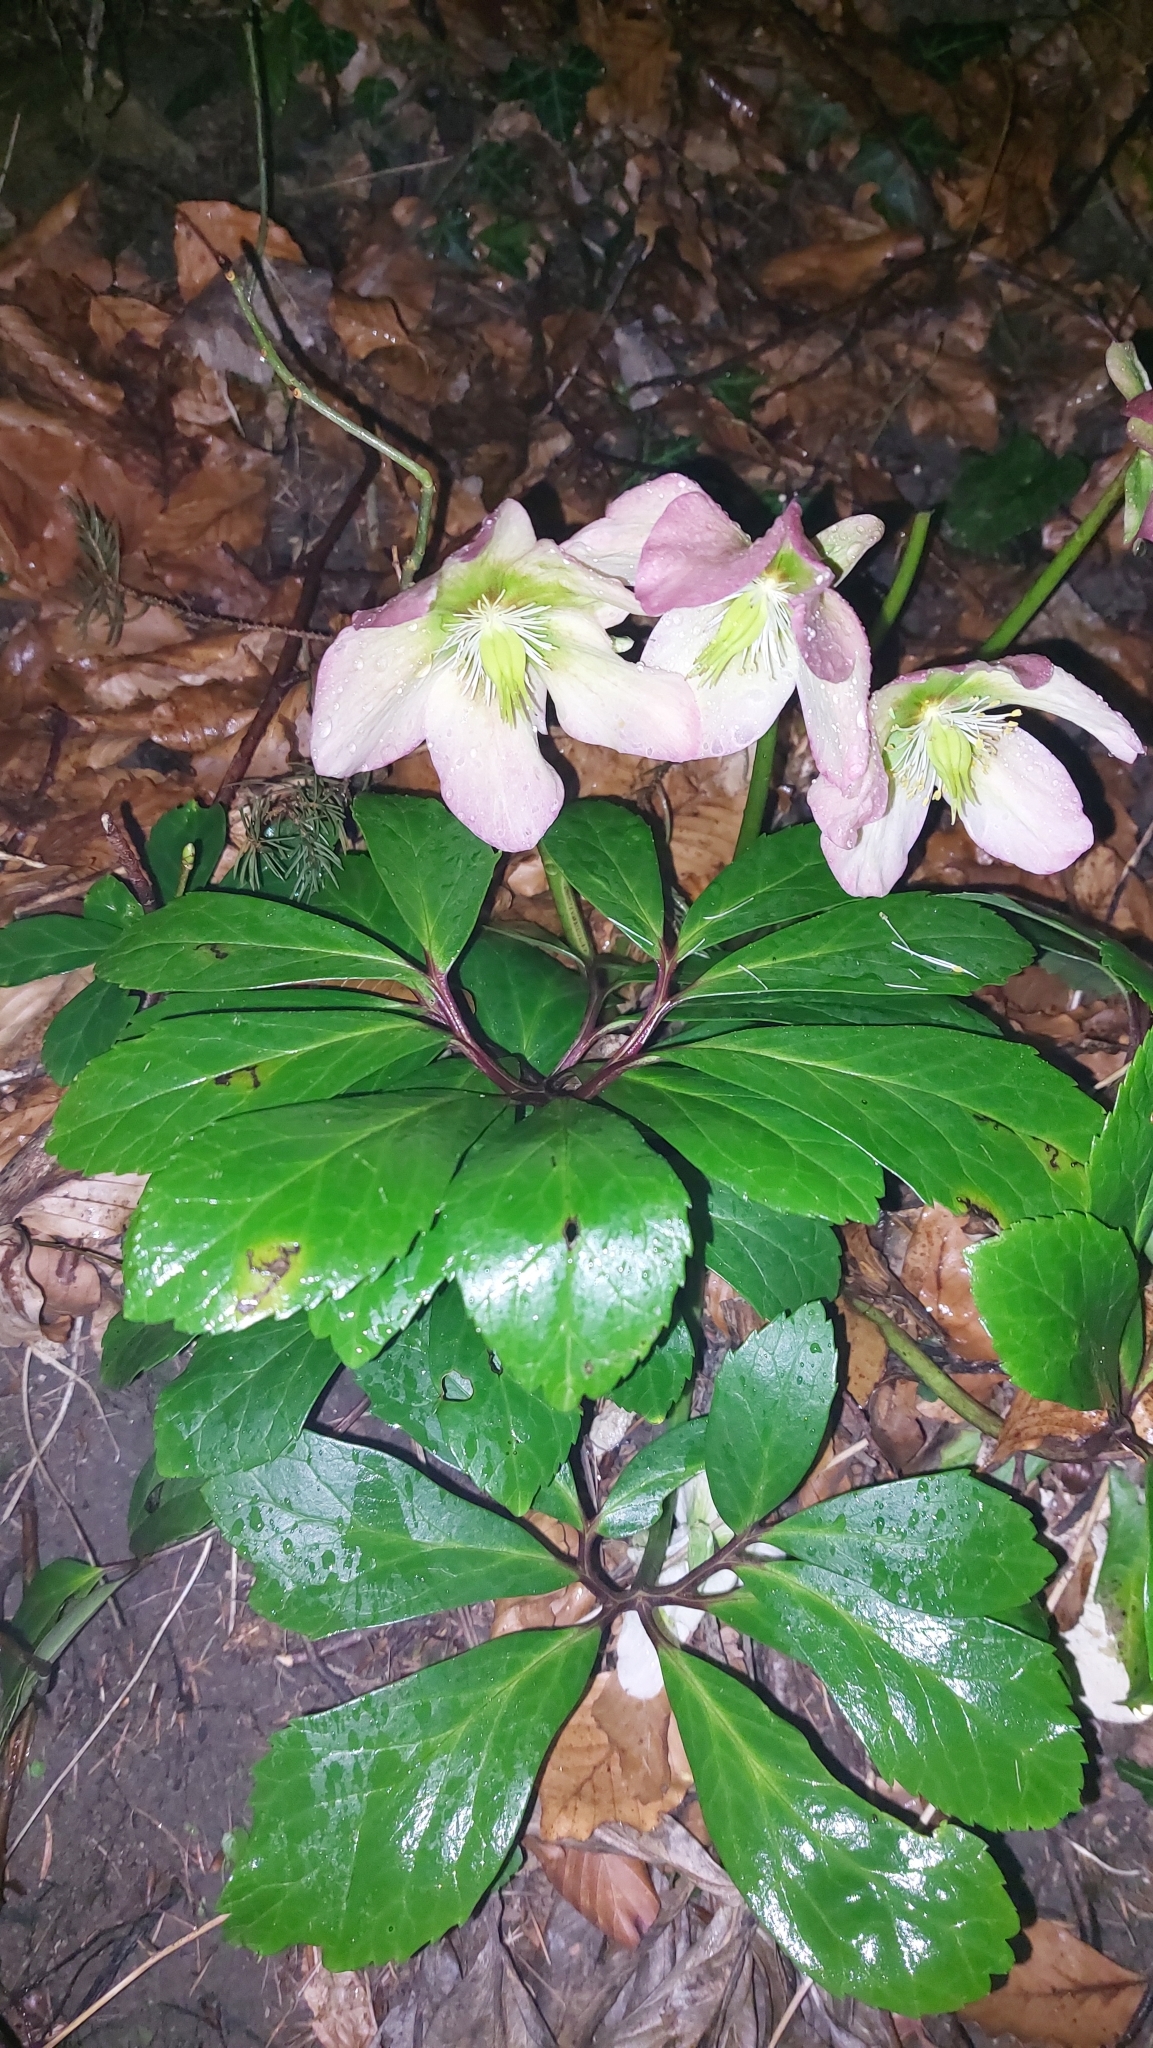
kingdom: Plantae
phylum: Tracheophyta
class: Magnoliopsida
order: Ranunculales
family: Ranunculaceae
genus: Helleborus
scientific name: Helleborus niger
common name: Black hellebore
